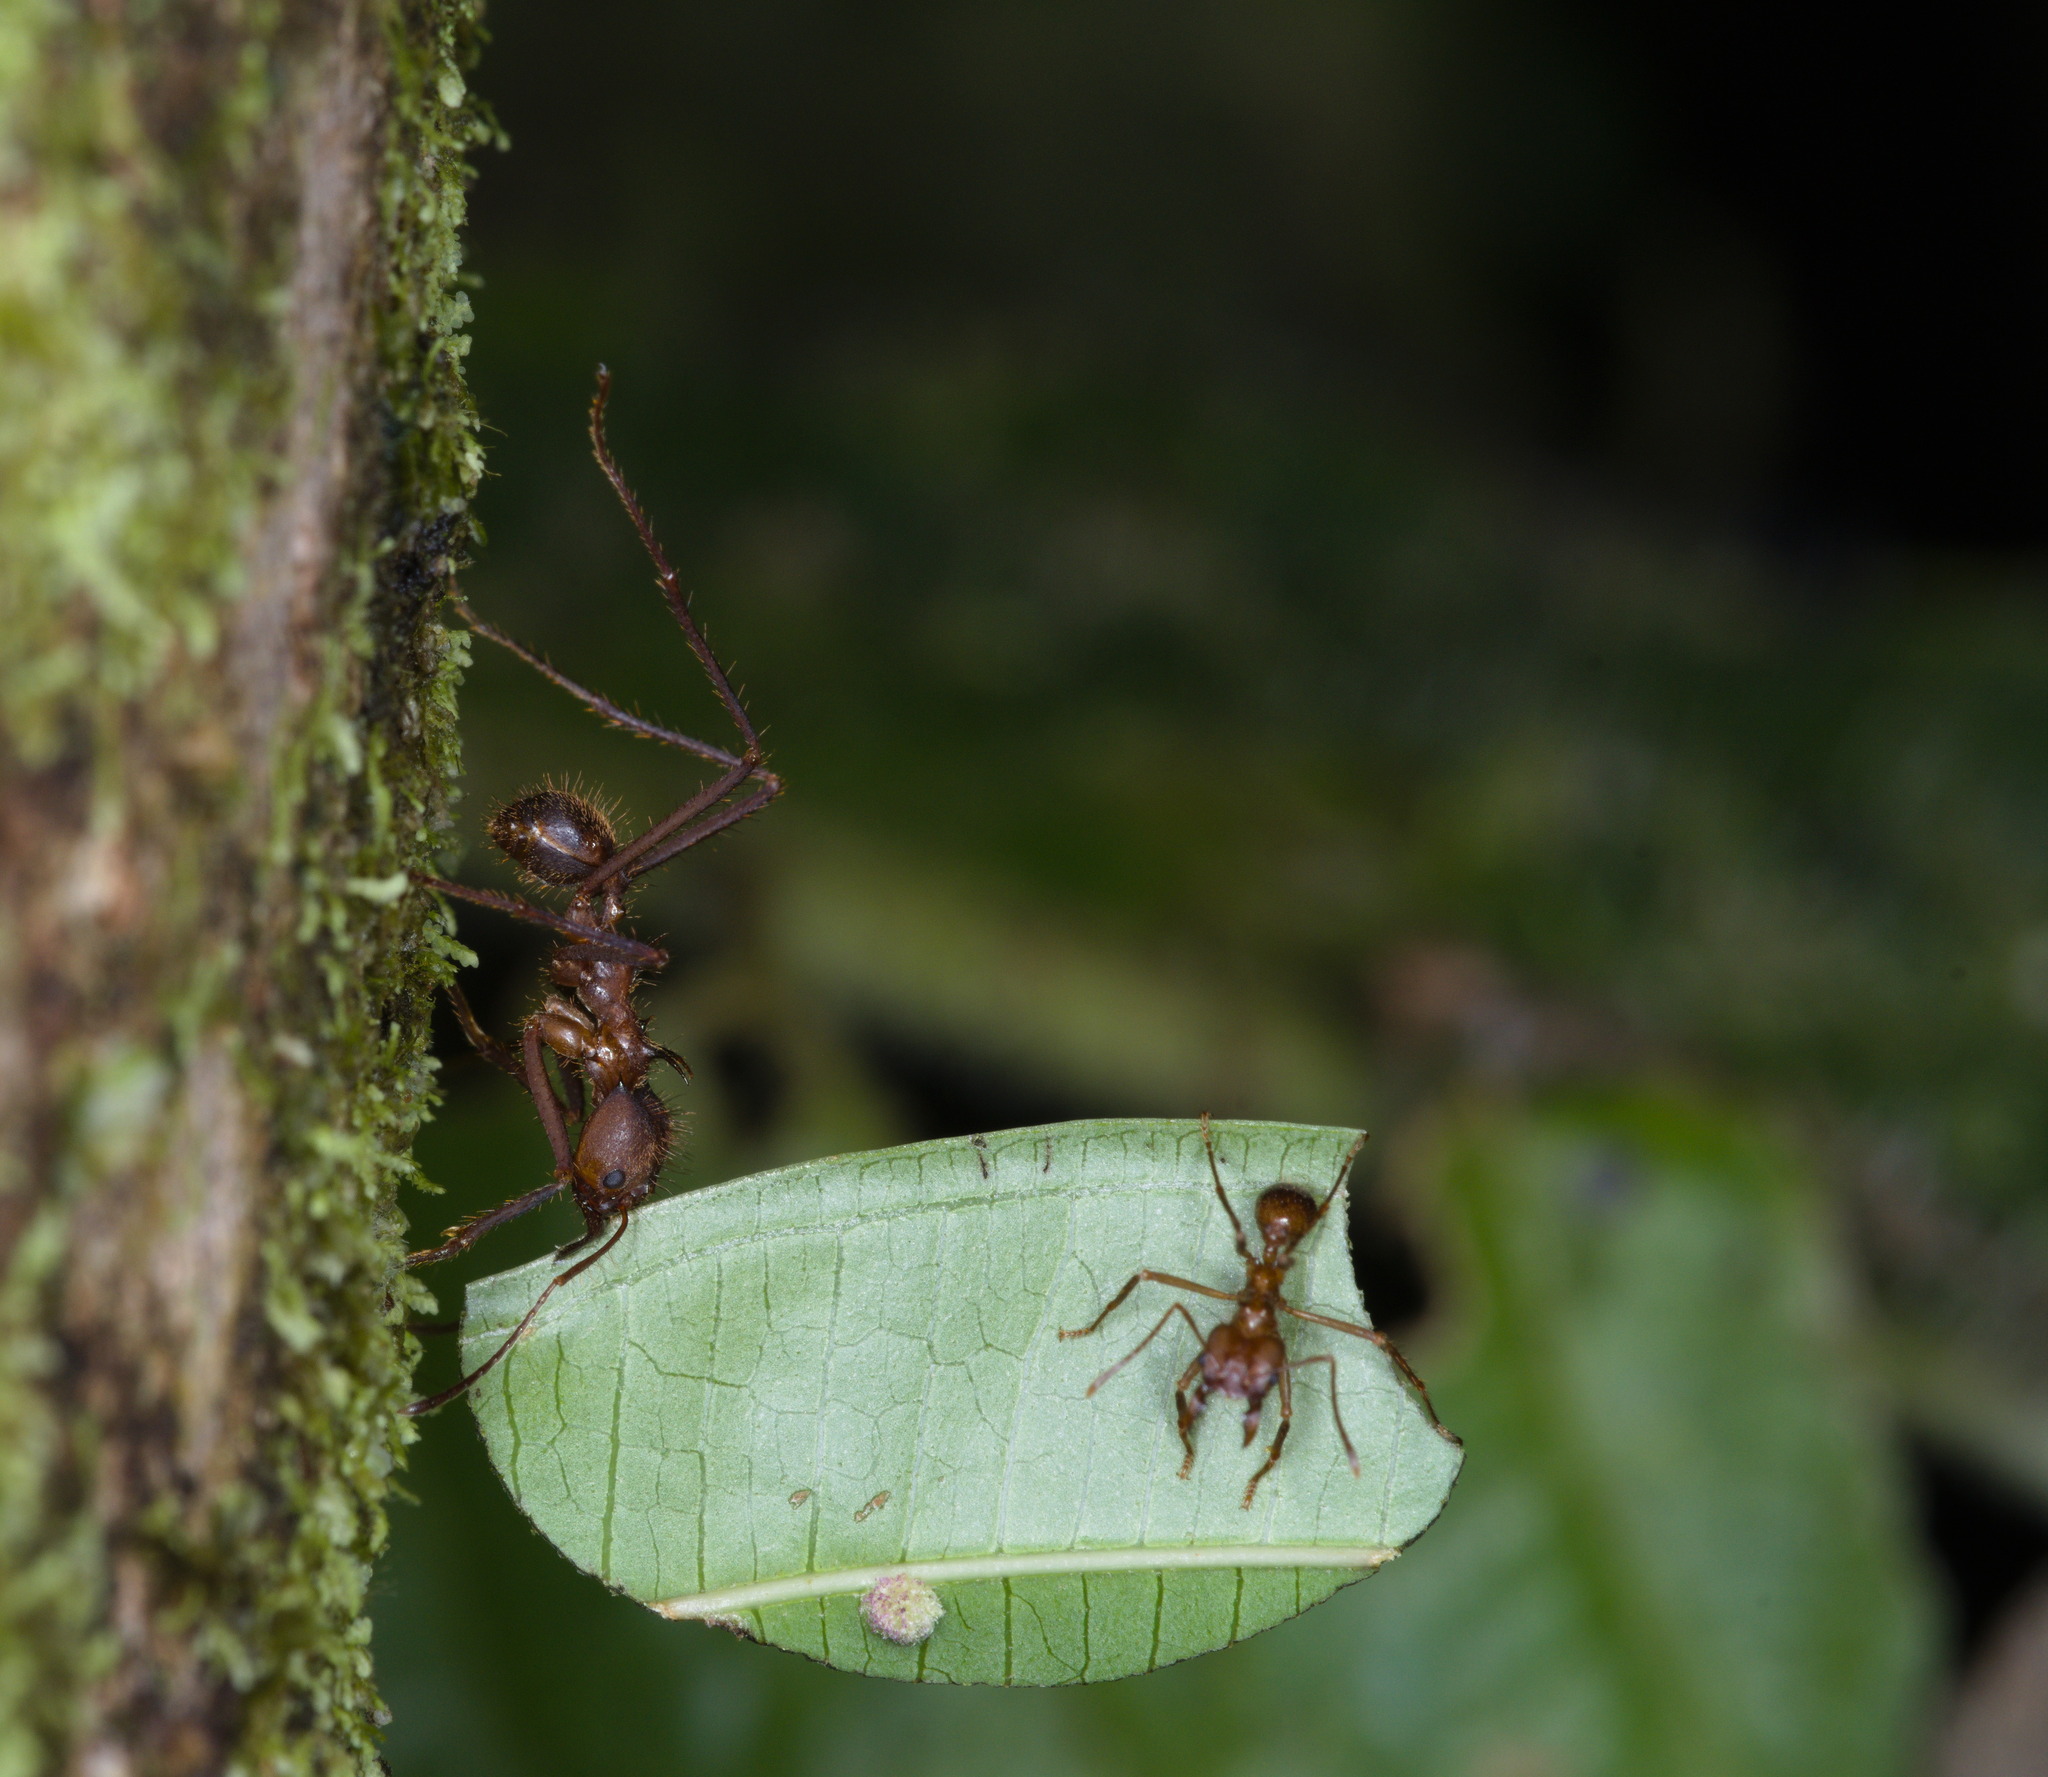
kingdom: Animalia
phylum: Arthropoda
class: Insecta
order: Hymenoptera
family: Formicidae
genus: Atta
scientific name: Atta cephalotes
